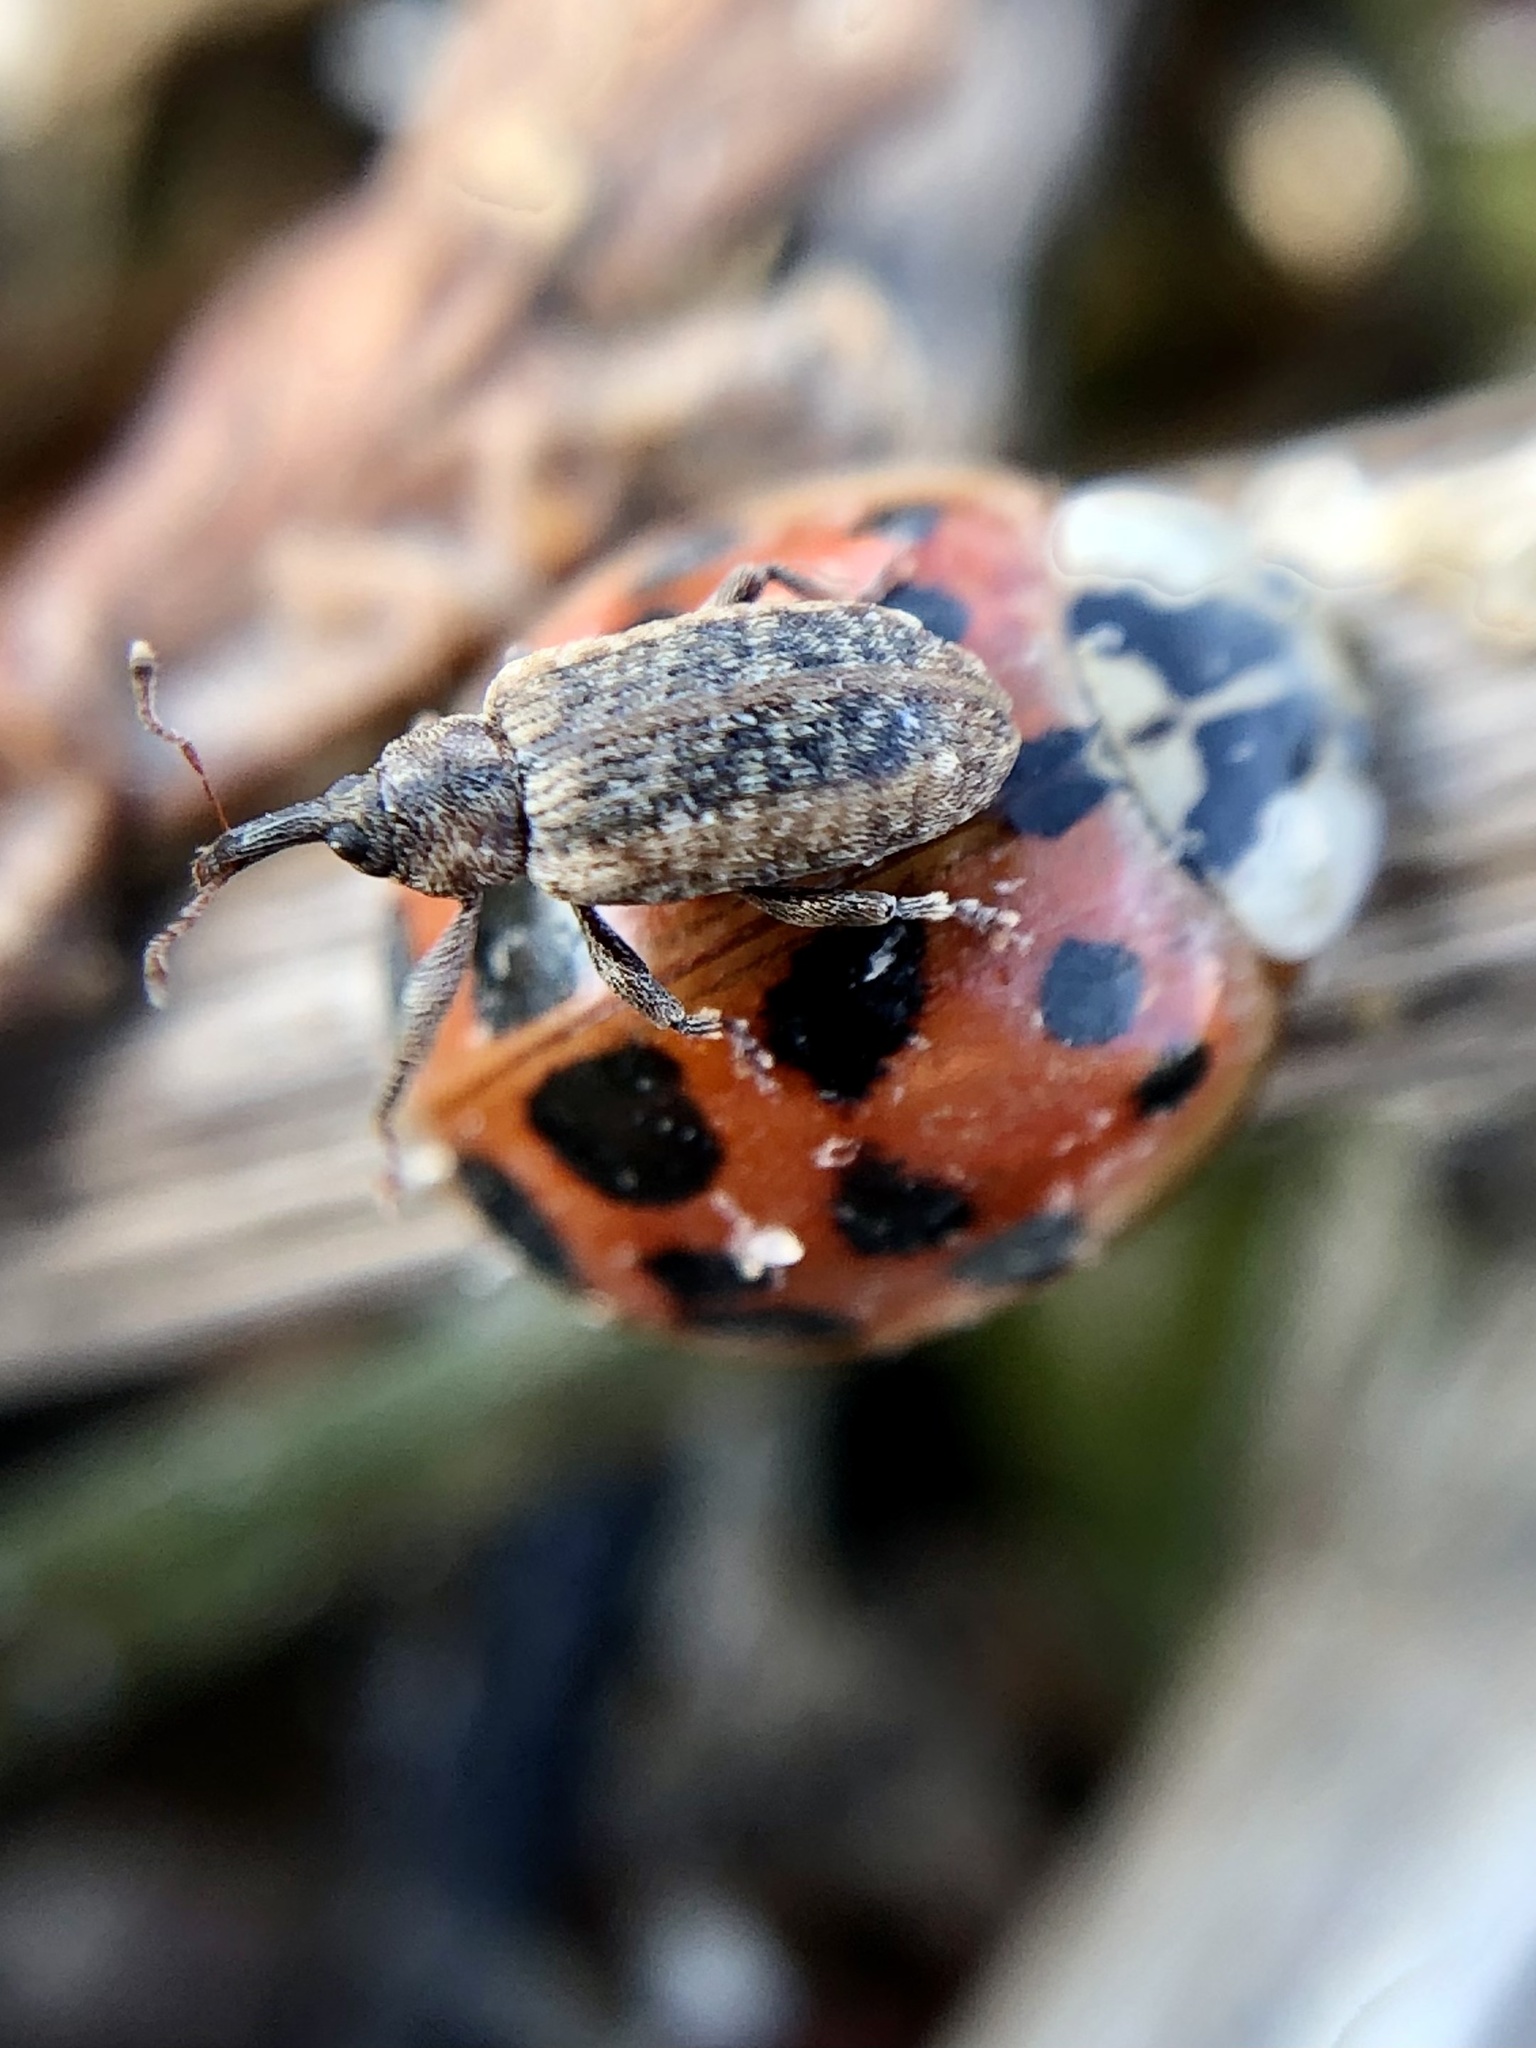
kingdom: Animalia
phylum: Arthropoda
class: Insecta
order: Coleoptera
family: Coccinellidae
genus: Harmonia
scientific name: Harmonia axyridis
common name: Harlequin ladybird
